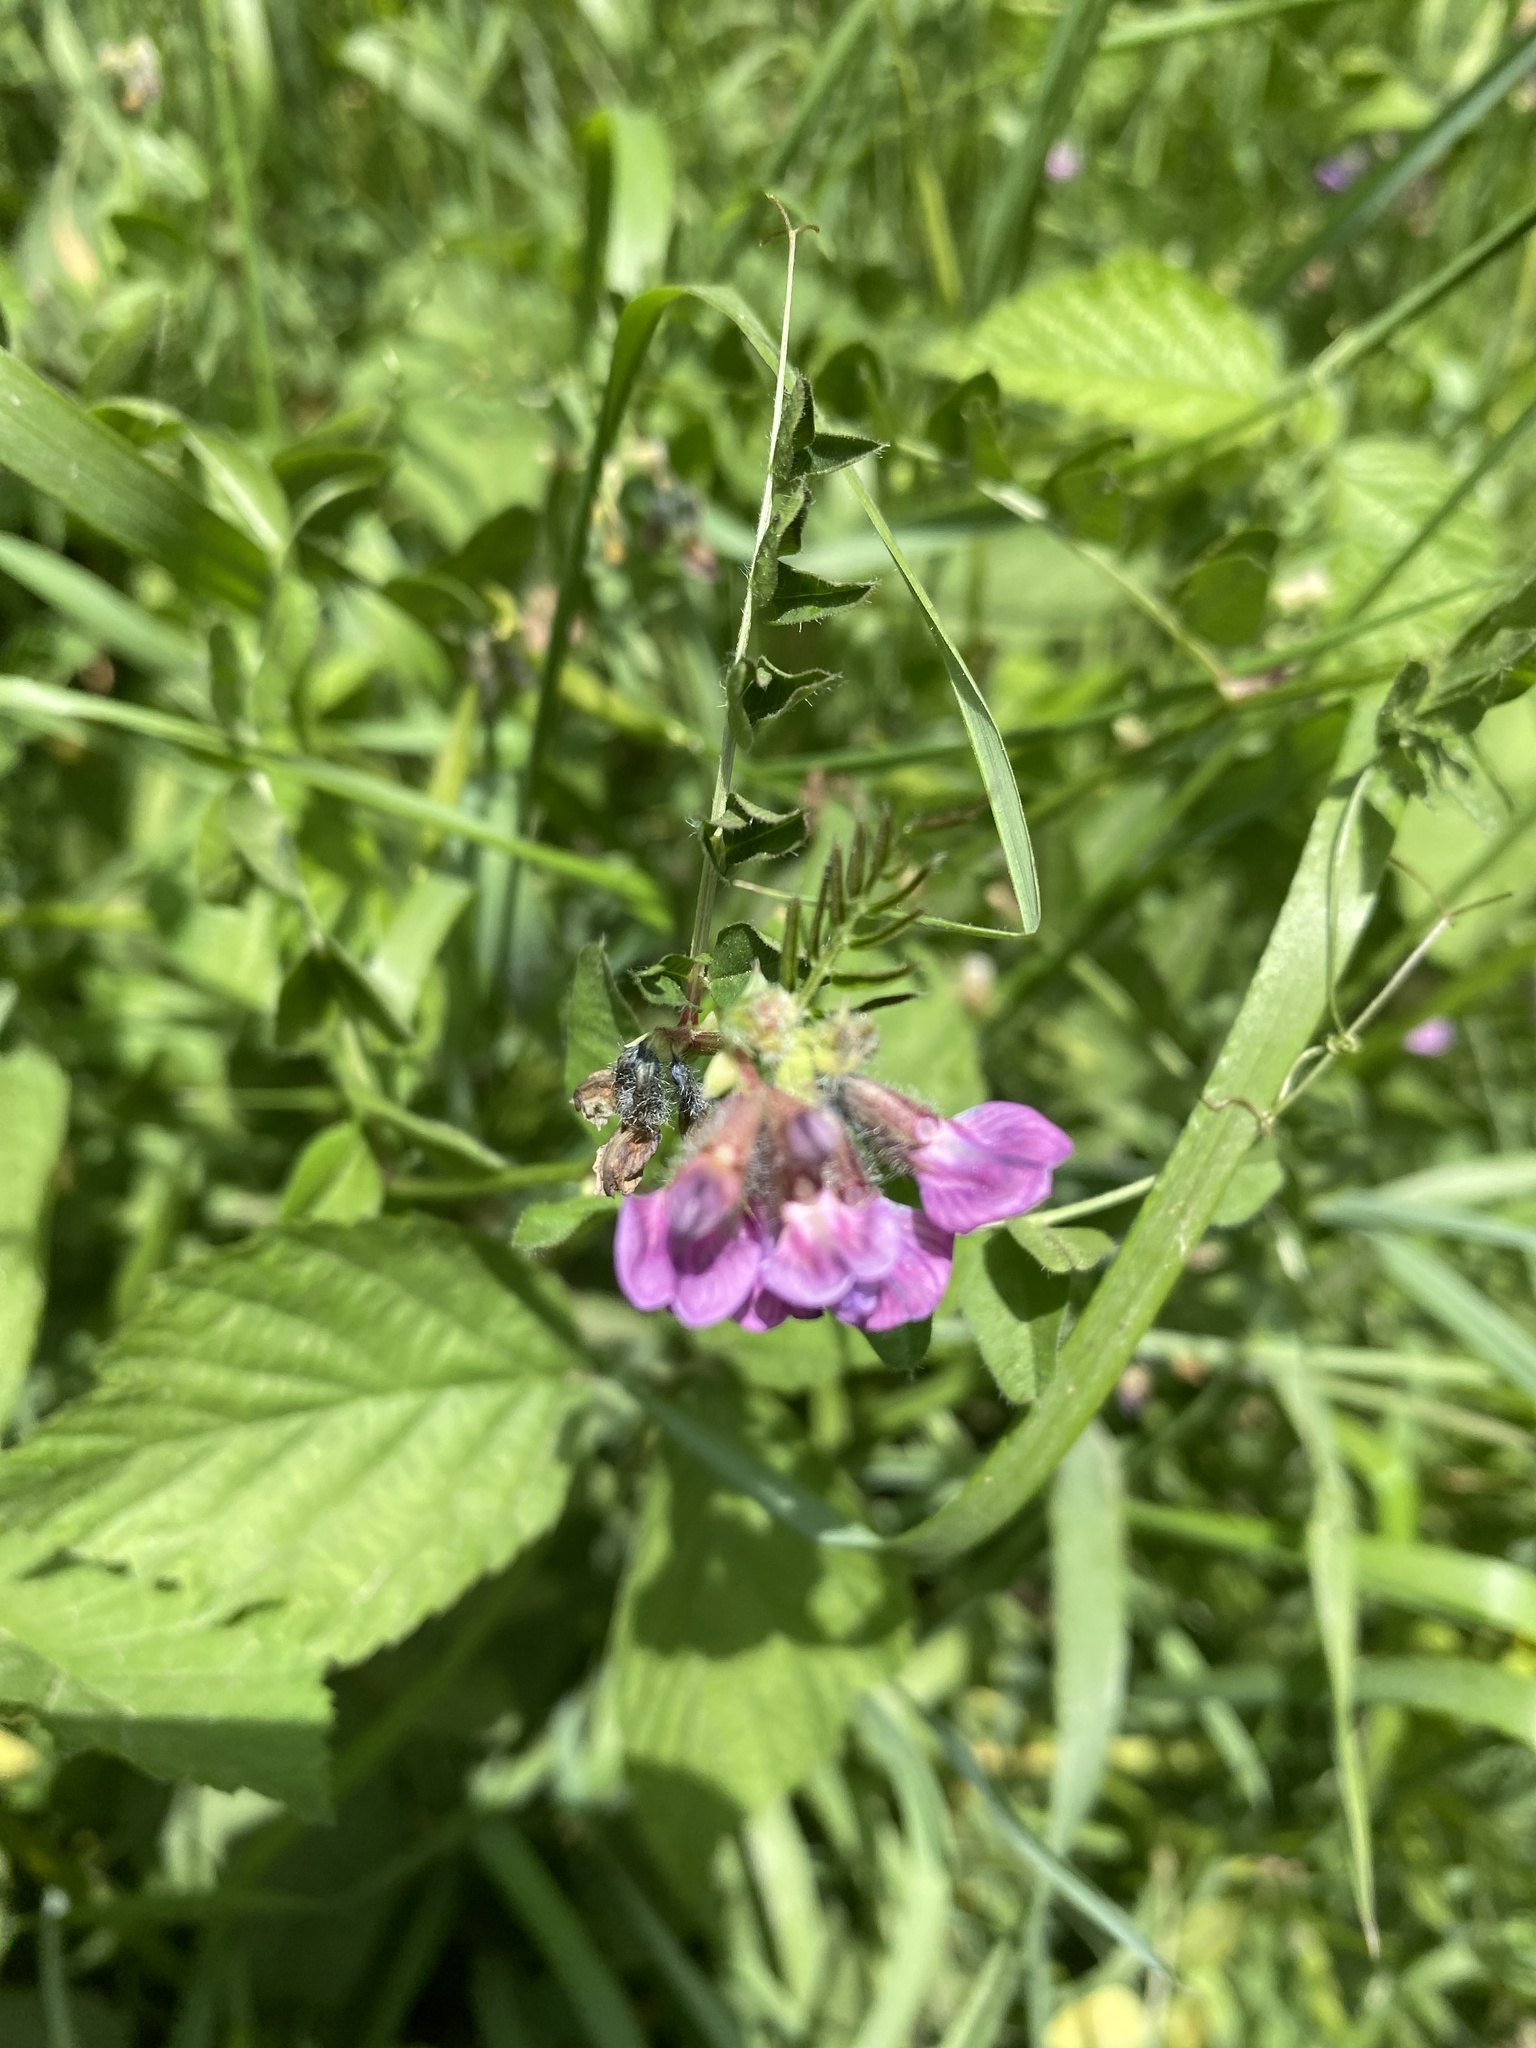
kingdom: Plantae
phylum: Tracheophyta
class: Magnoliopsida
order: Fabales
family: Fabaceae
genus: Vicia
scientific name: Vicia sepium
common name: Bush vetch
